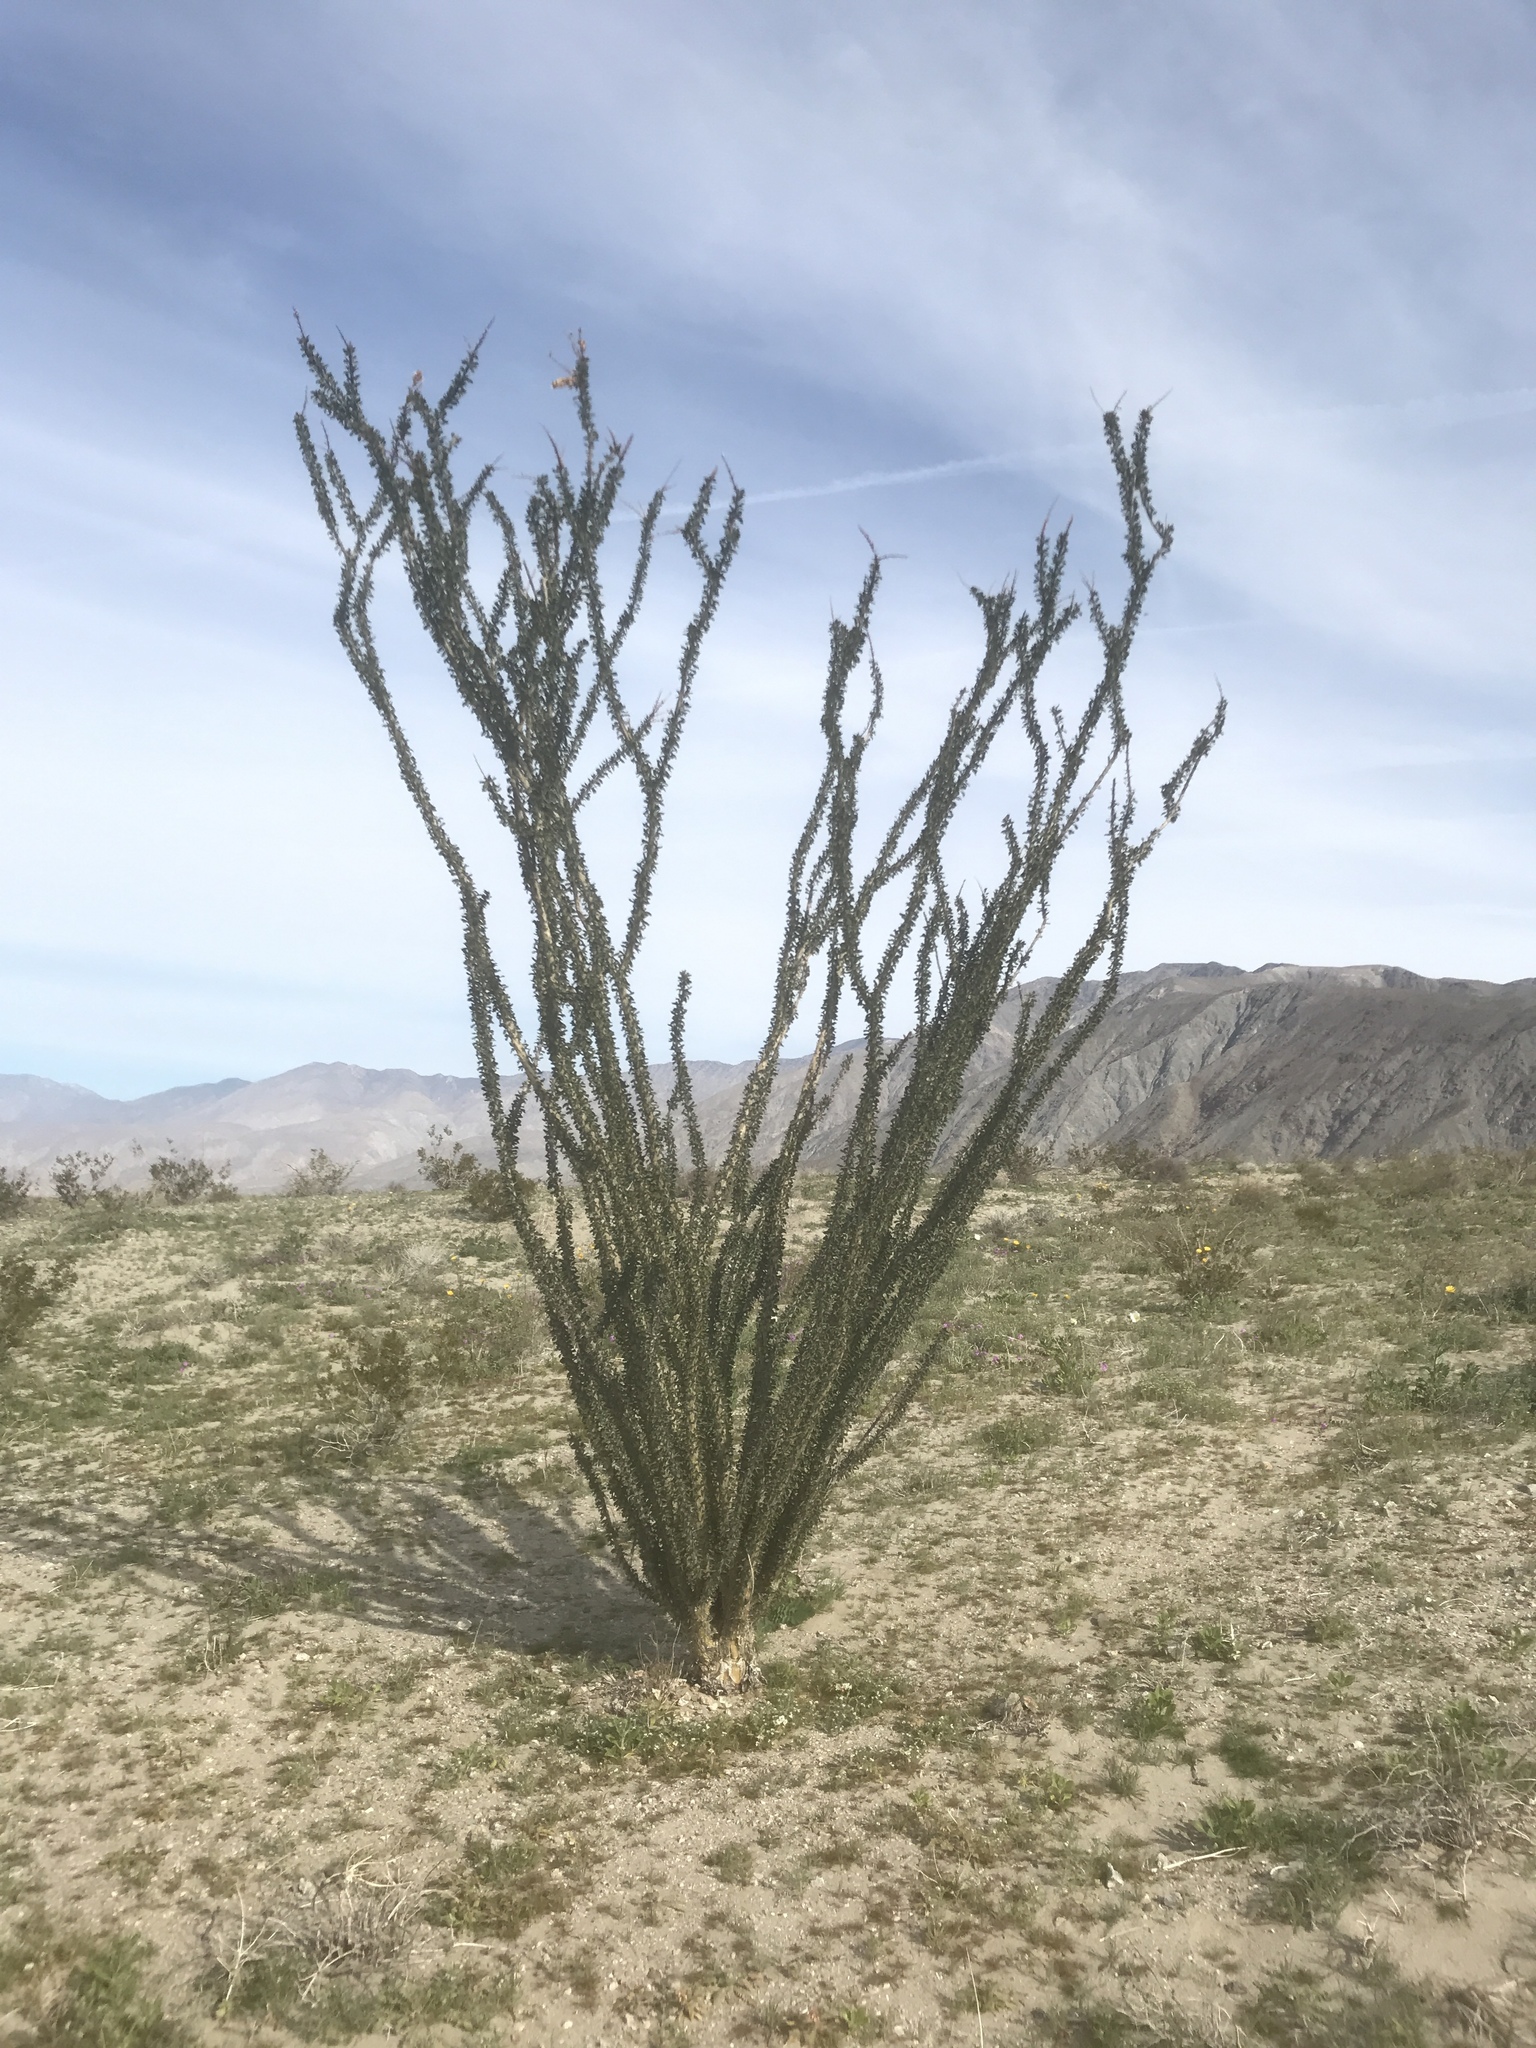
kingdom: Plantae
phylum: Tracheophyta
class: Magnoliopsida
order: Ericales
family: Fouquieriaceae
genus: Fouquieria
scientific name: Fouquieria splendens
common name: Vine-cactus
